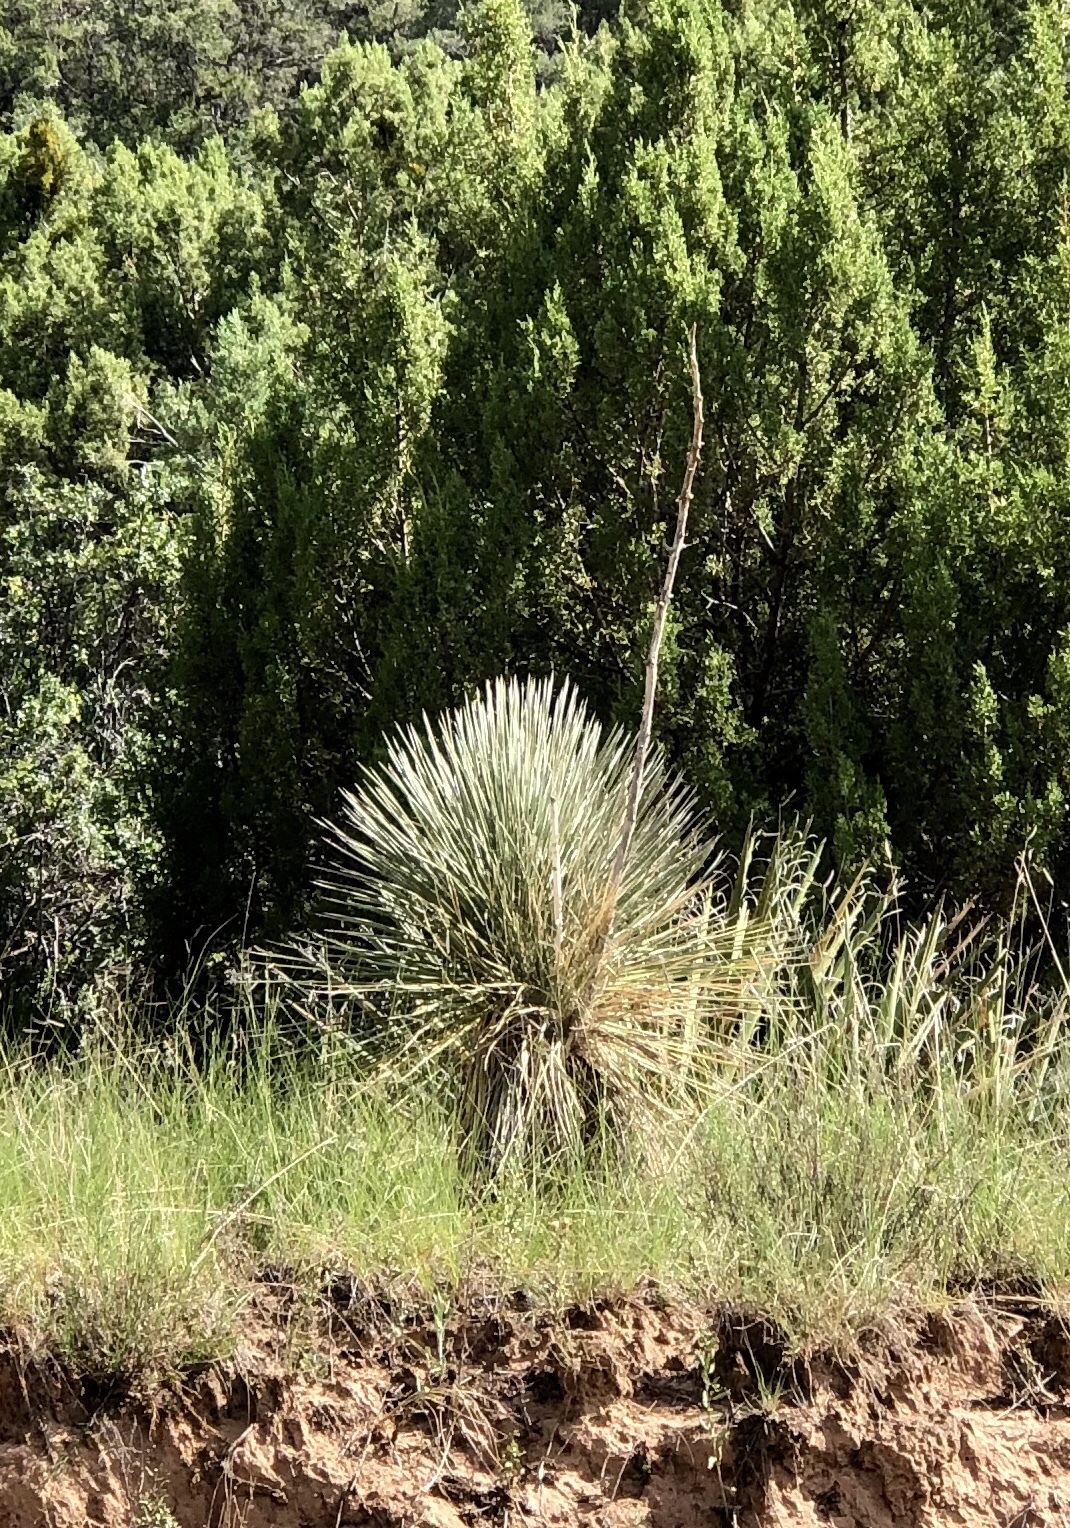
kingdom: Plantae
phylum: Tracheophyta
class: Liliopsida
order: Asparagales
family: Asparagaceae
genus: Yucca
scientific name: Yucca elata
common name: Palmella
